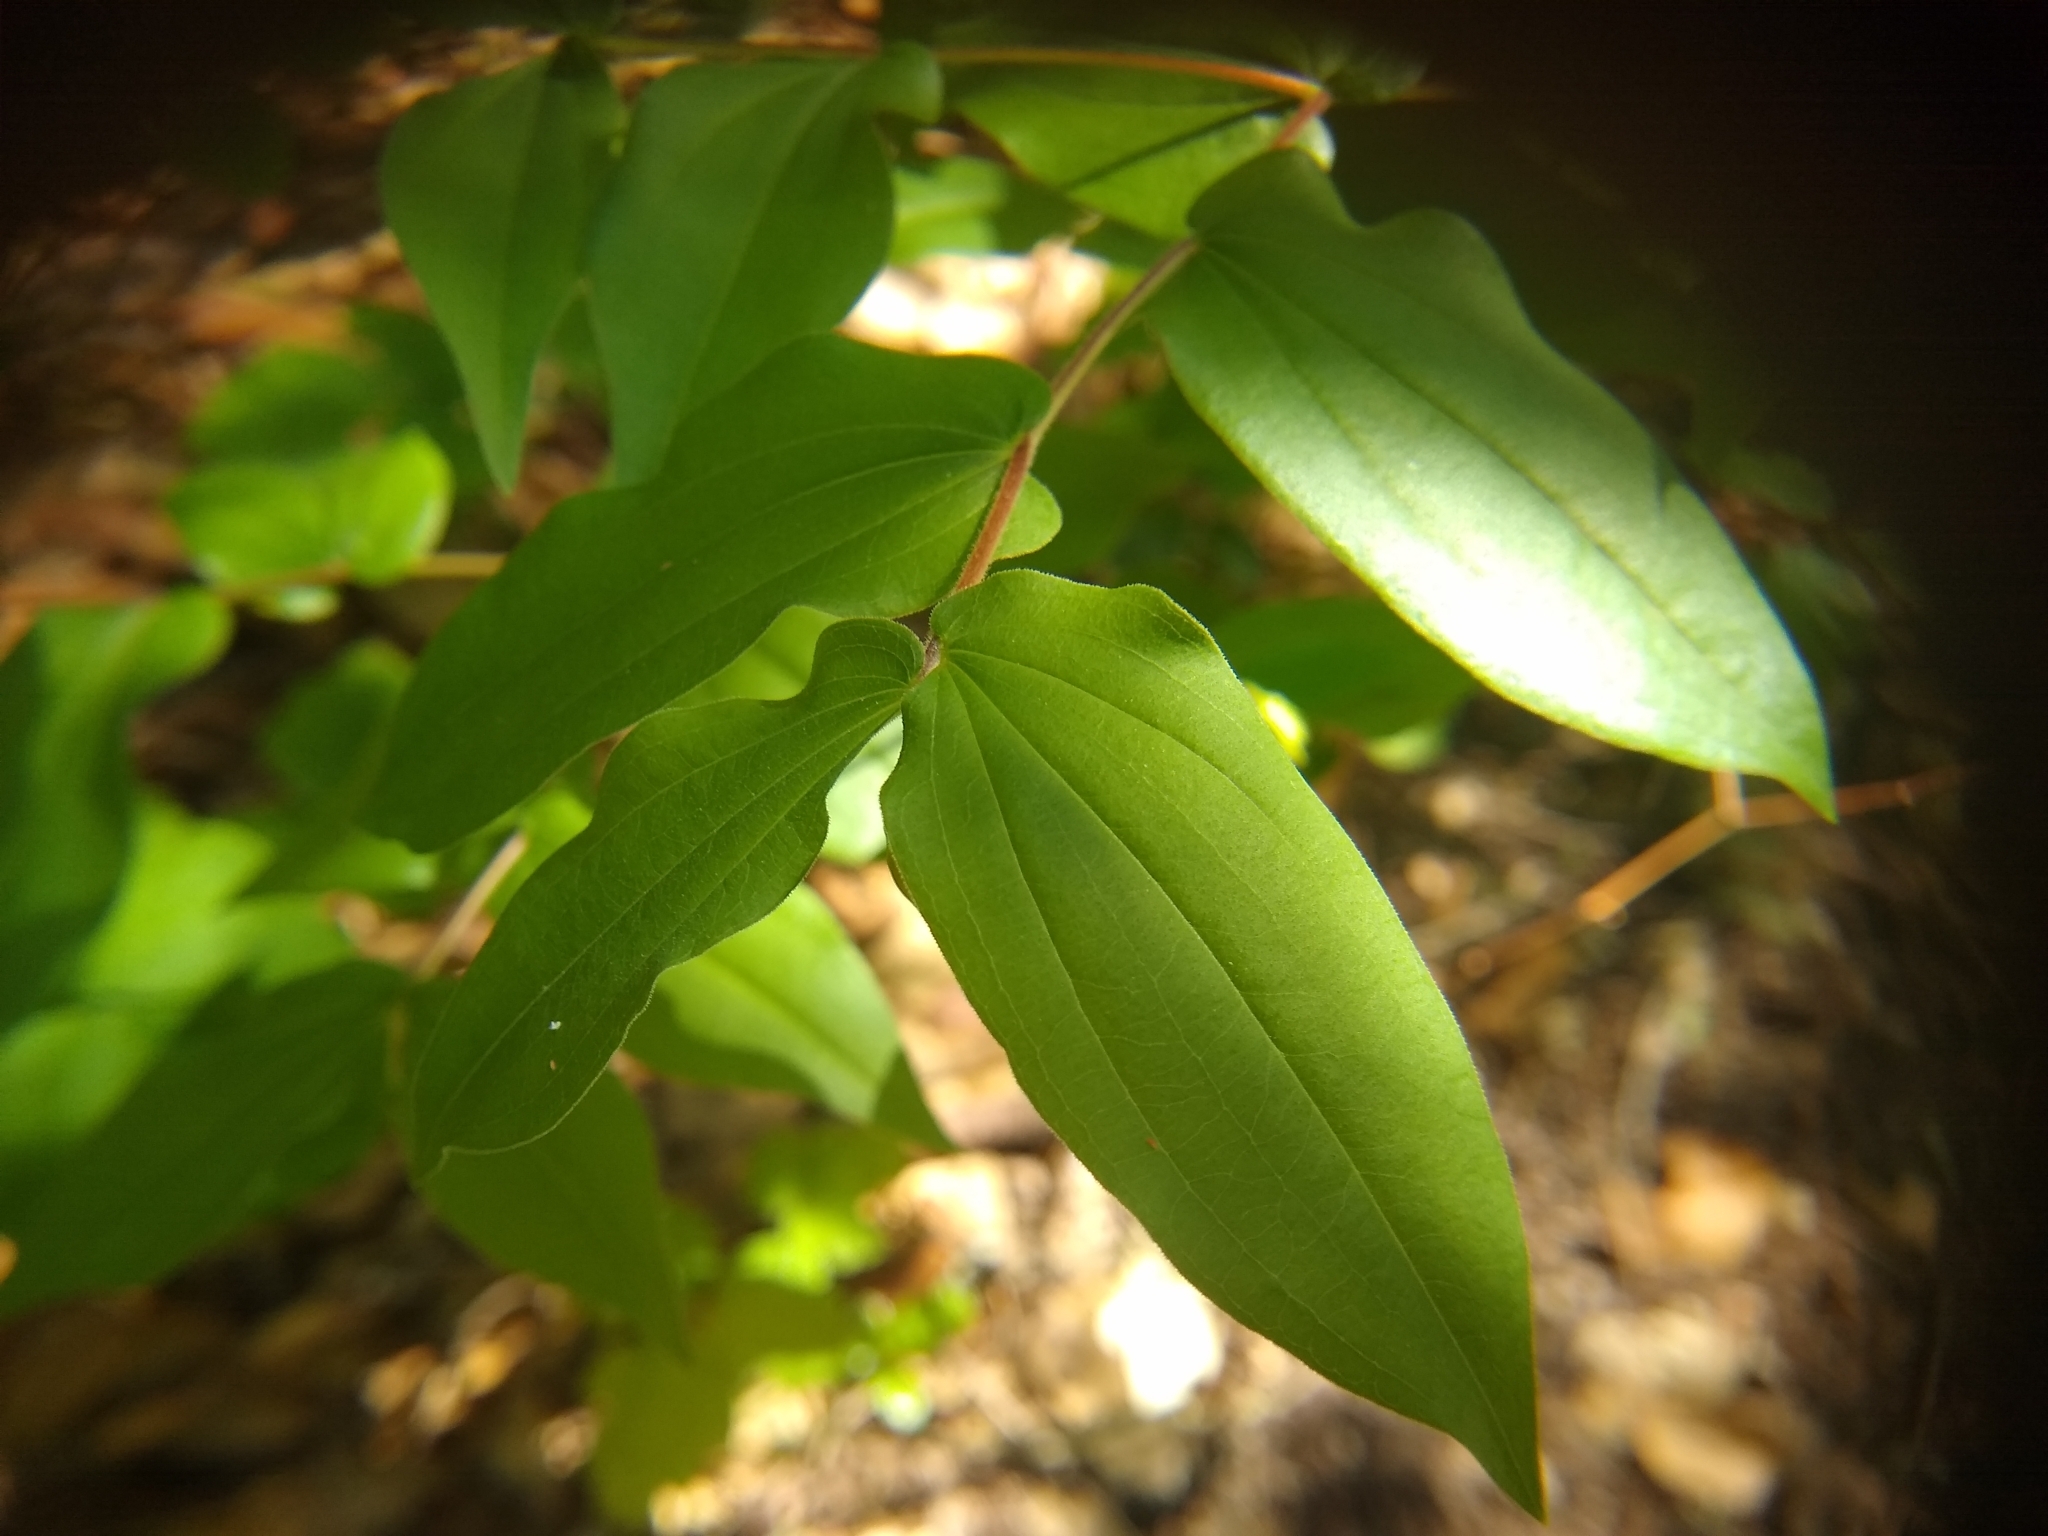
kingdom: Plantae
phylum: Tracheophyta
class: Liliopsida
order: Liliales
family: Liliaceae
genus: Prosartes
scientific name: Prosartes hookeri
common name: Fairy-bells
